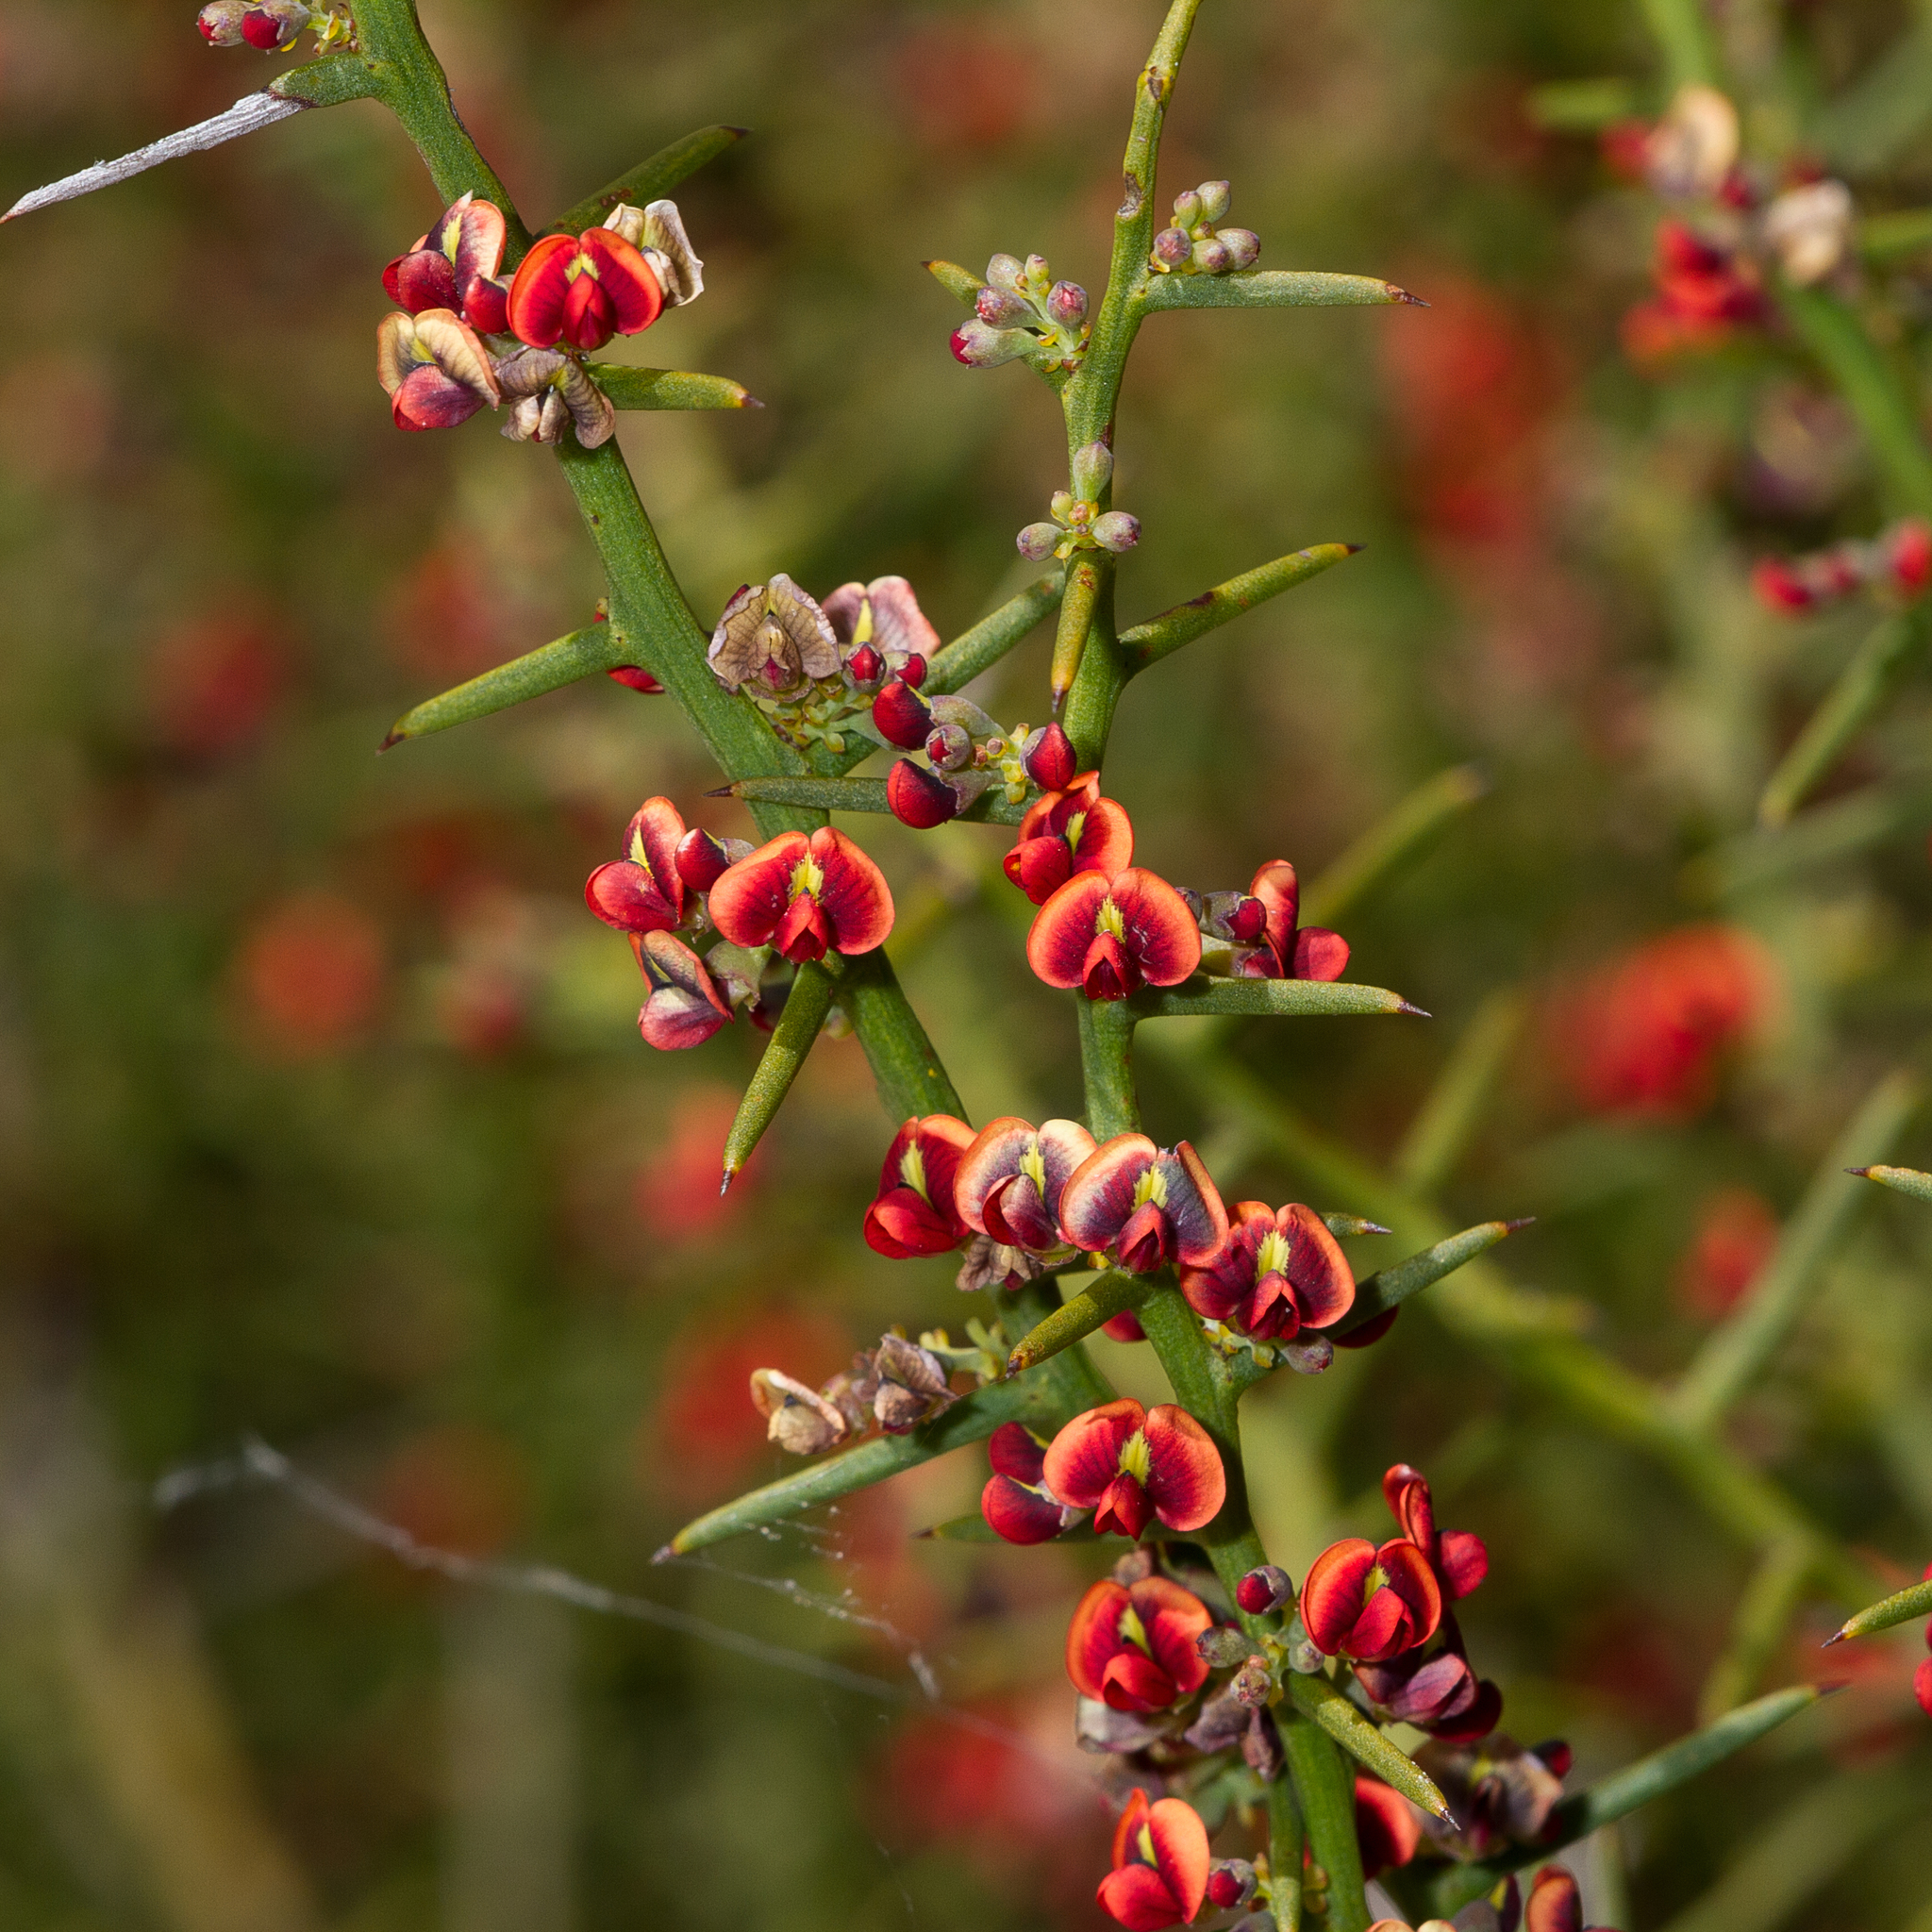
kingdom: Plantae
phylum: Tracheophyta
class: Magnoliopsida
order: Fabales
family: Fabaceae
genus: Daviesia
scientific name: Daviesia devito
